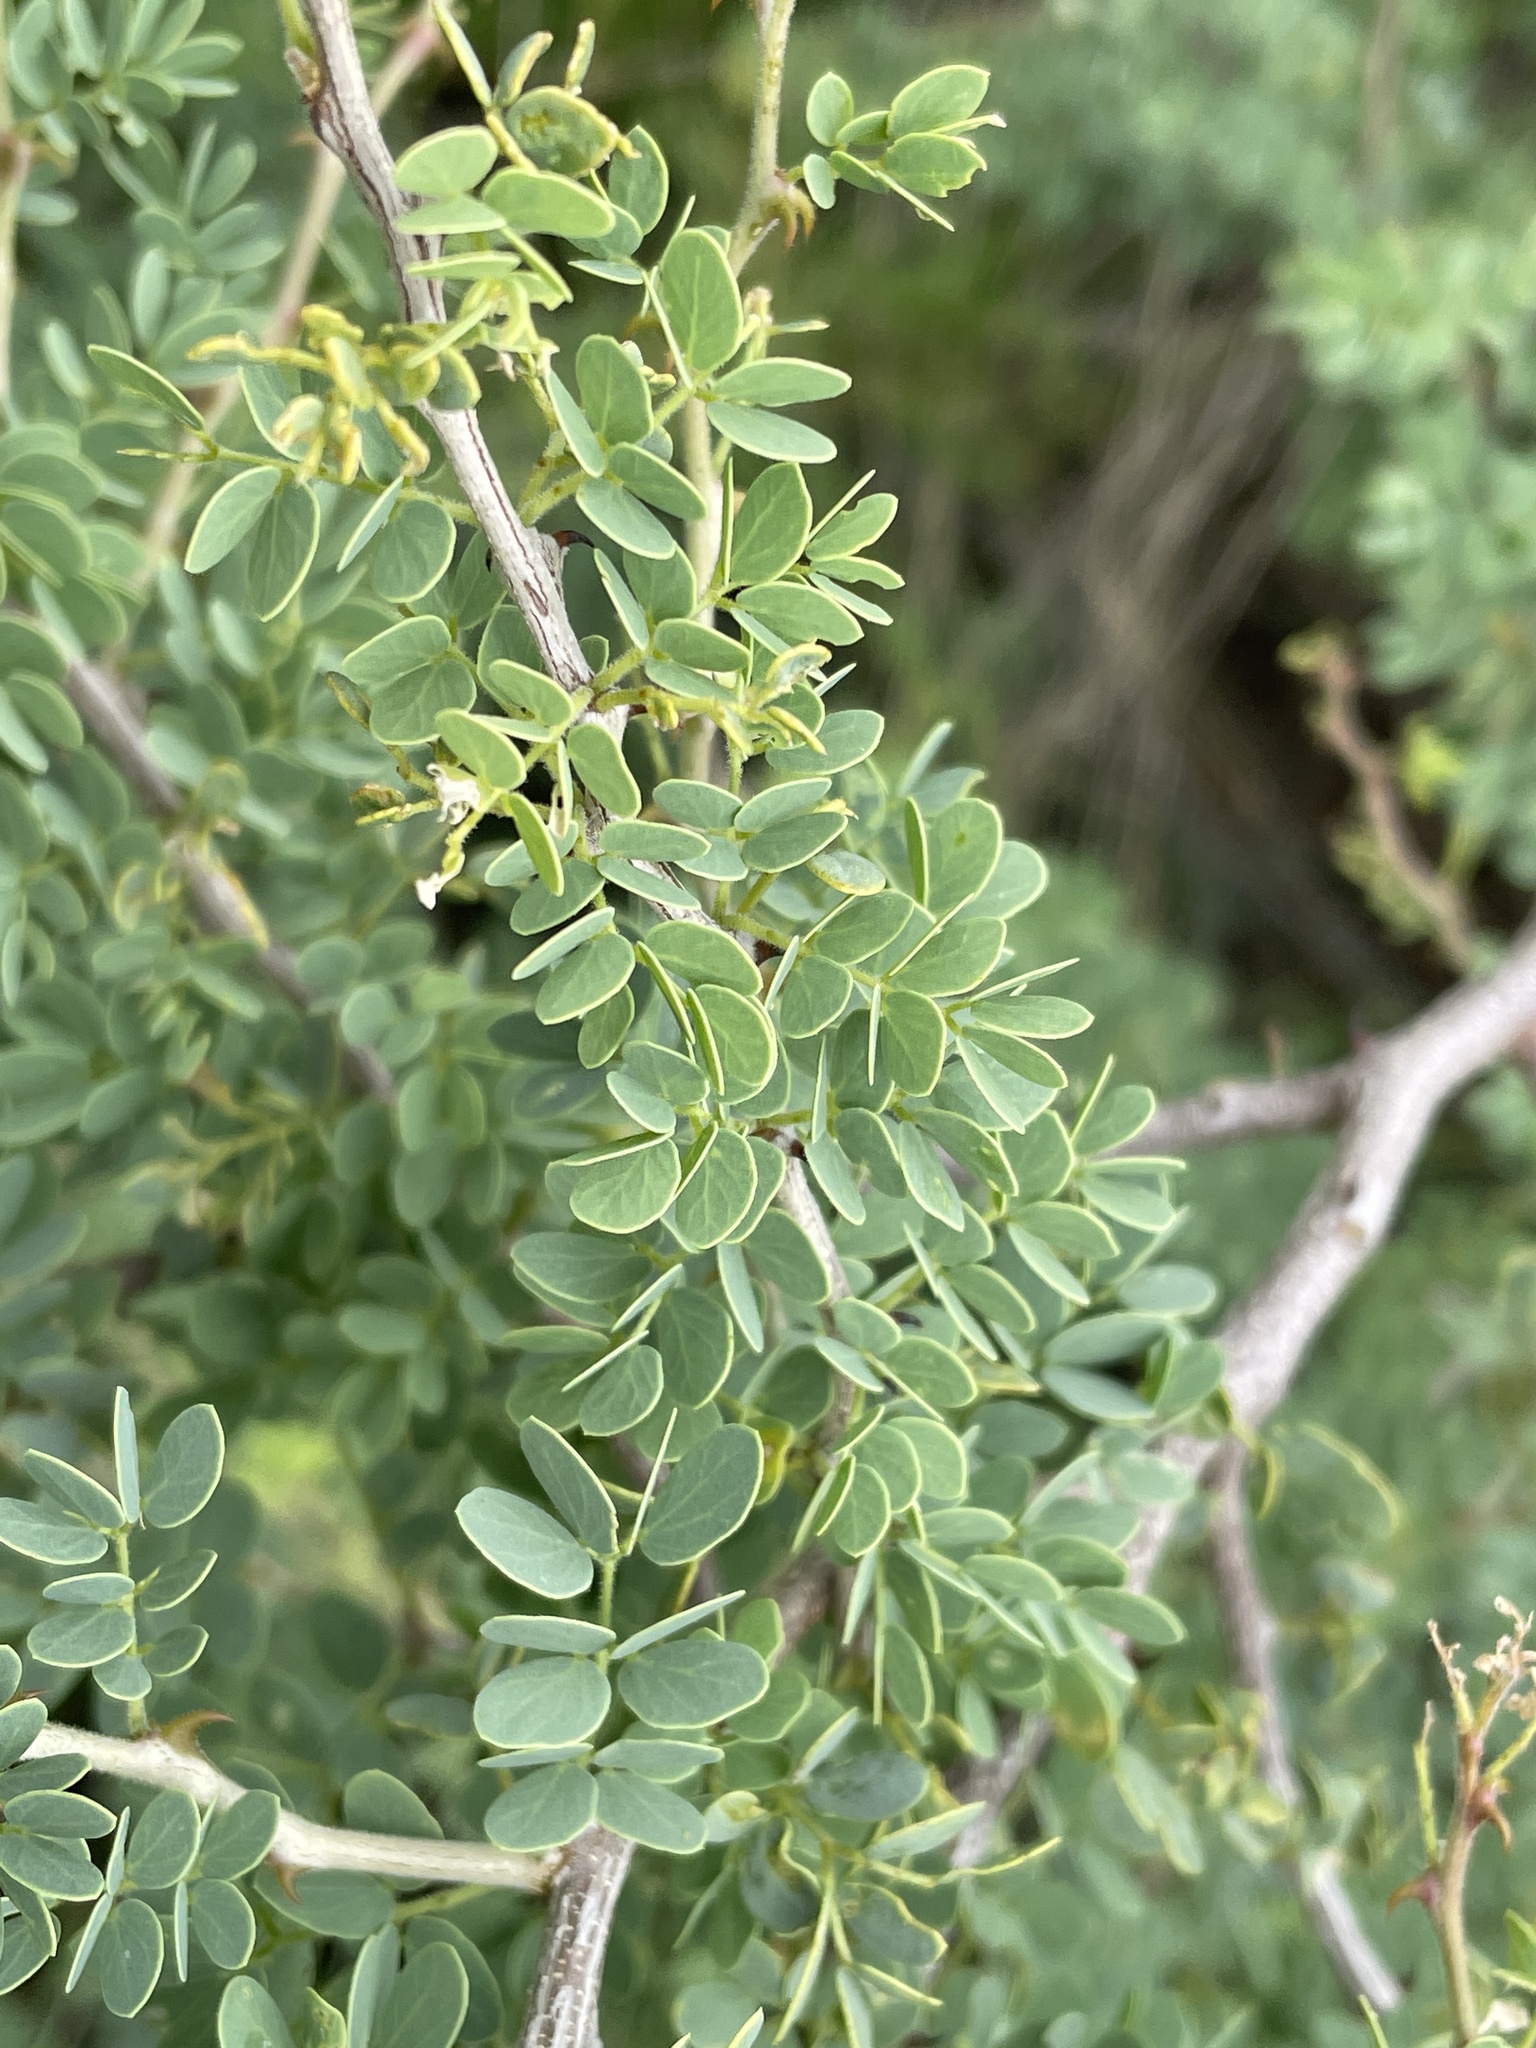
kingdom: Plantae
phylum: Tracheophyta
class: Magnoliopsida
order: Fabales
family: Fabaceae
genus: Senegalia
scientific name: Senegalia mellifera
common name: Hookthorn
